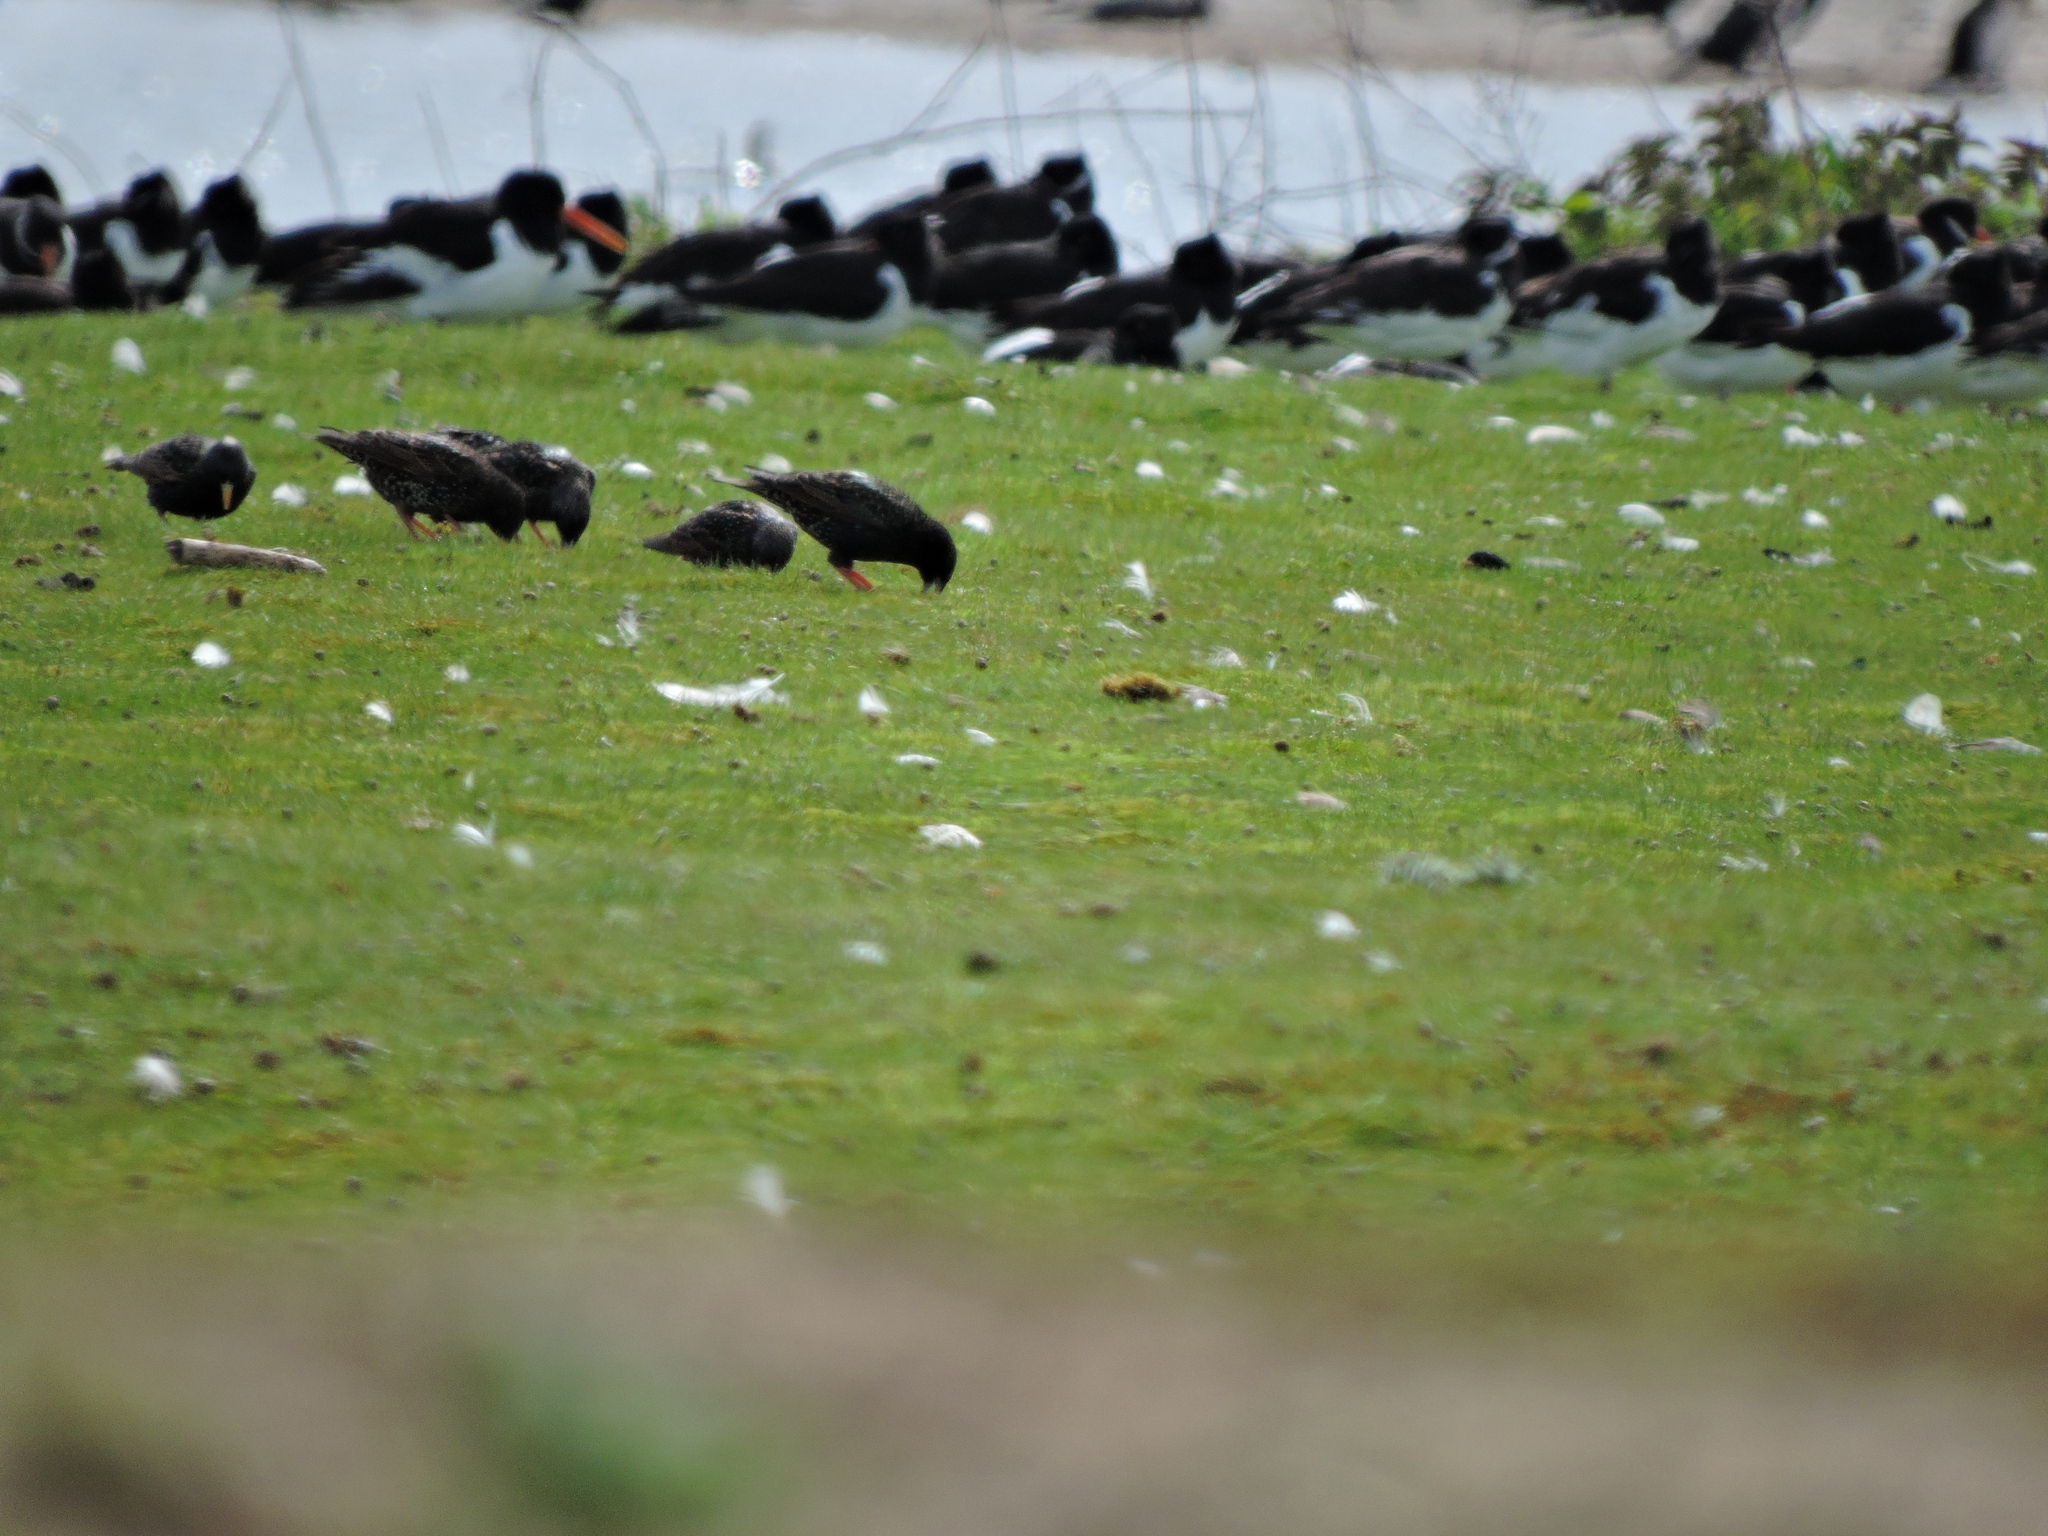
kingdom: Animalia
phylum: Chordata
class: Aves
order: Passeriformes
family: Sturnidae
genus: Sturnus
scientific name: Sturnus vulgaris
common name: Common starling
